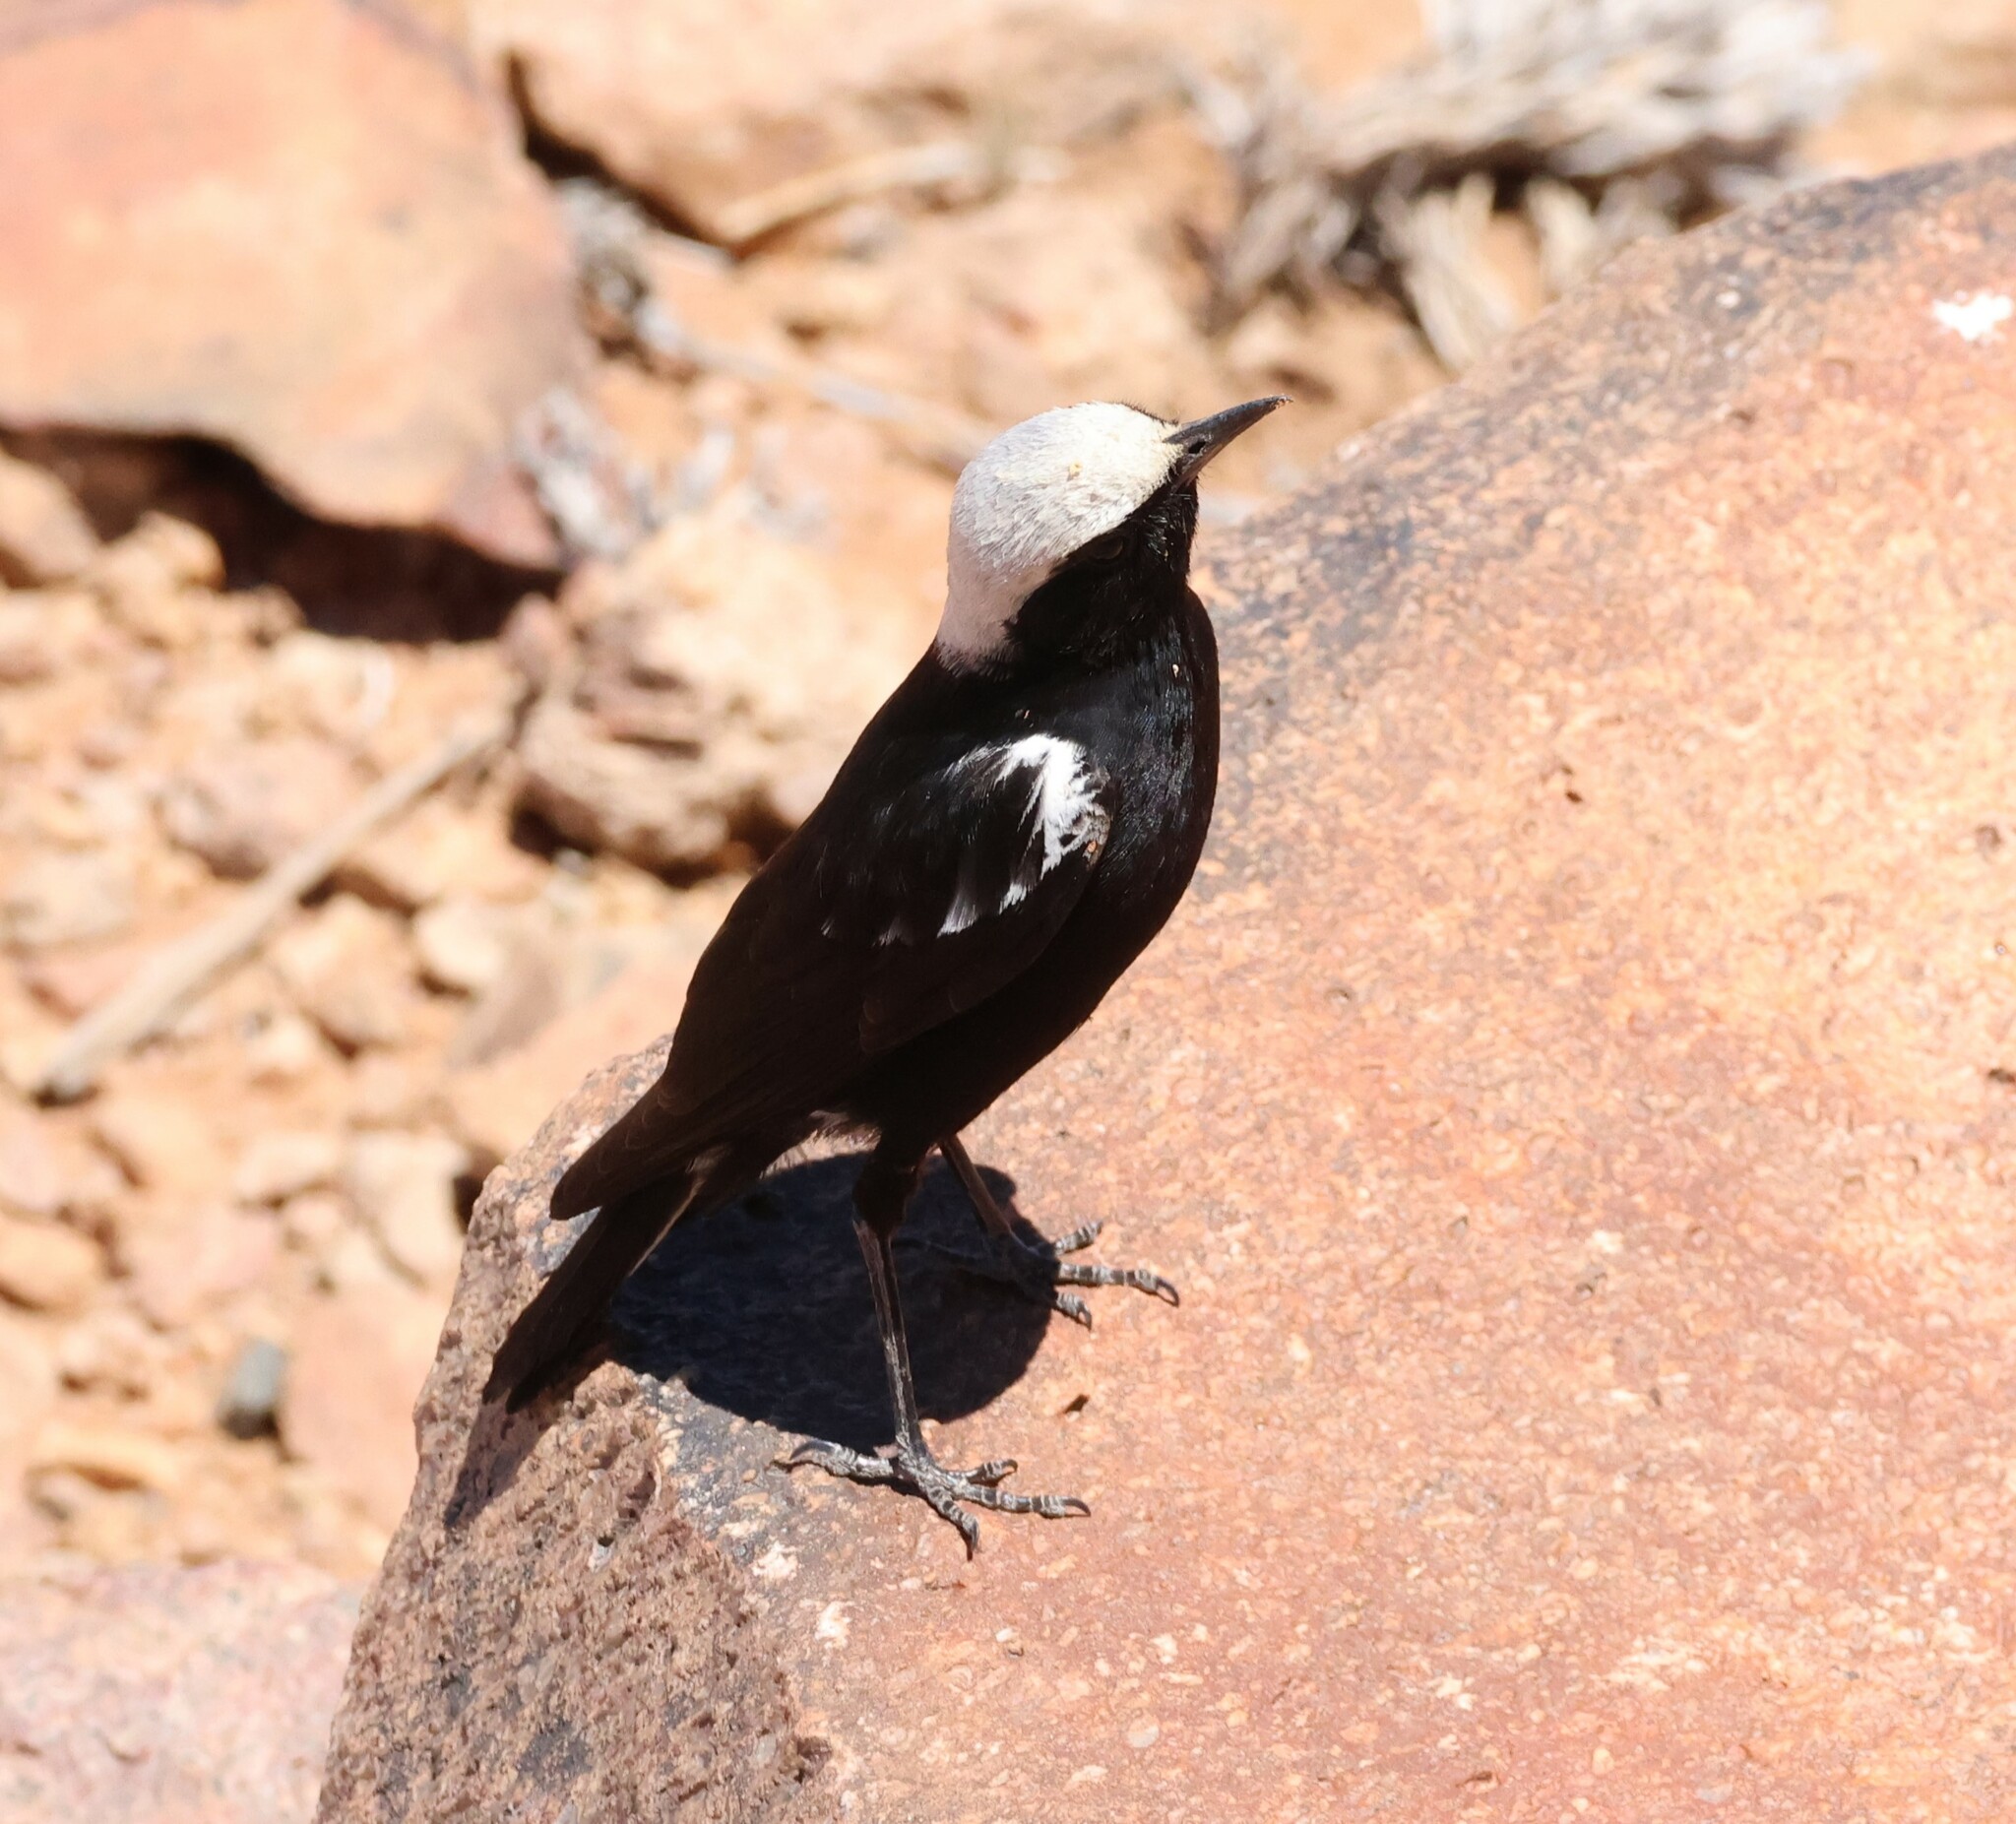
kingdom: Animalia
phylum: Chordata
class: Aves
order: Passeriformes
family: Muscicapidae
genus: Oenanthe
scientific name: Oenanthe monticola
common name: Mountain wheatear
